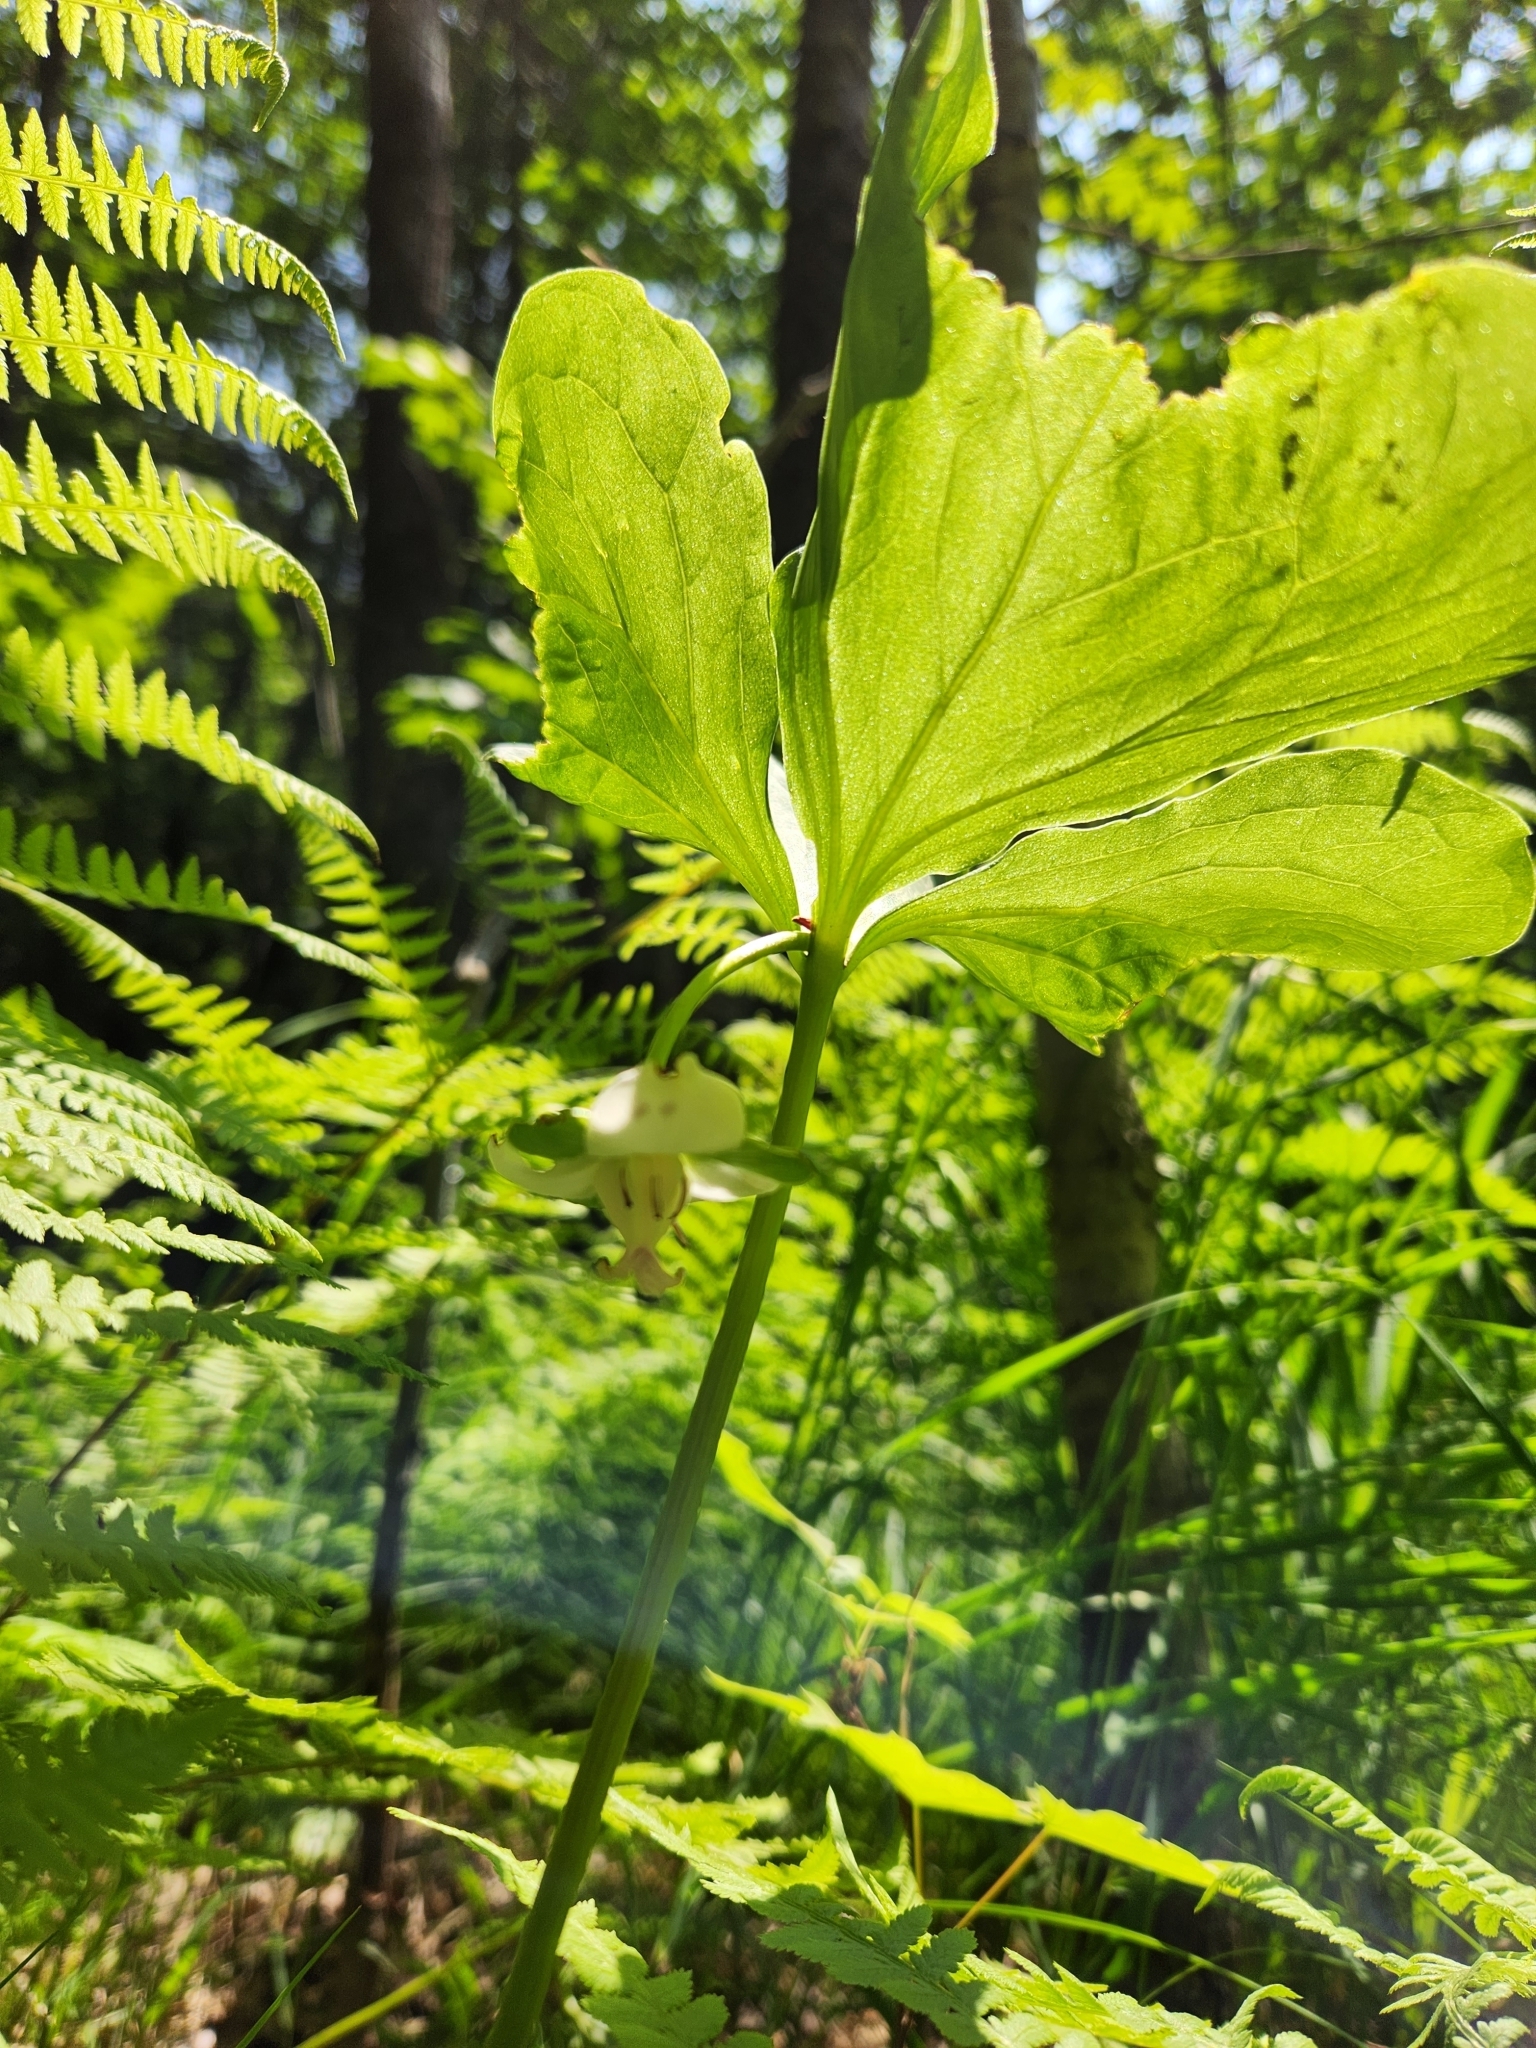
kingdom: Plantae
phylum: Tracheophyta
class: Liliopsida
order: Liliales
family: Melanthiaceae
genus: Trillium
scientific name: Trillium cernuum
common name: Nodding trillium
